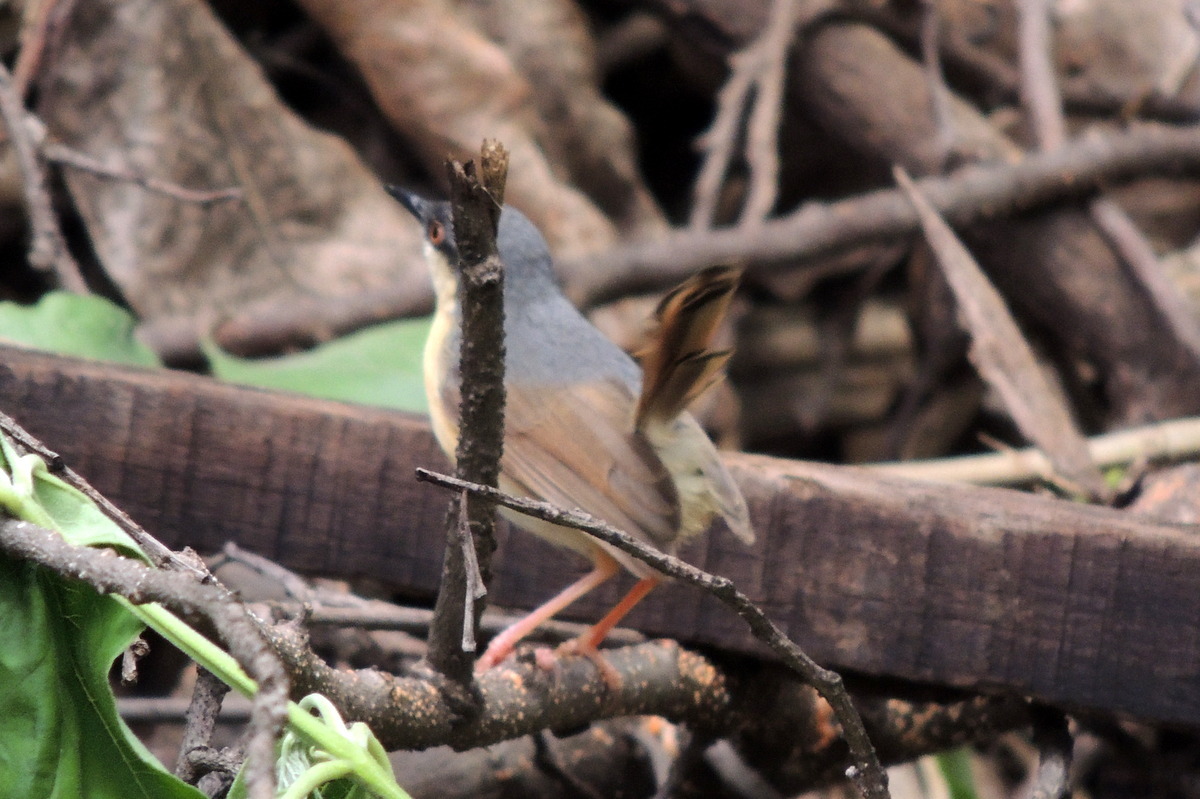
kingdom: Animalia
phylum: Chordata
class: Aves
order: Passeriformes
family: Cisticolidae
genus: Prinia
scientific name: Prinia socialis
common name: Ashy prinia
